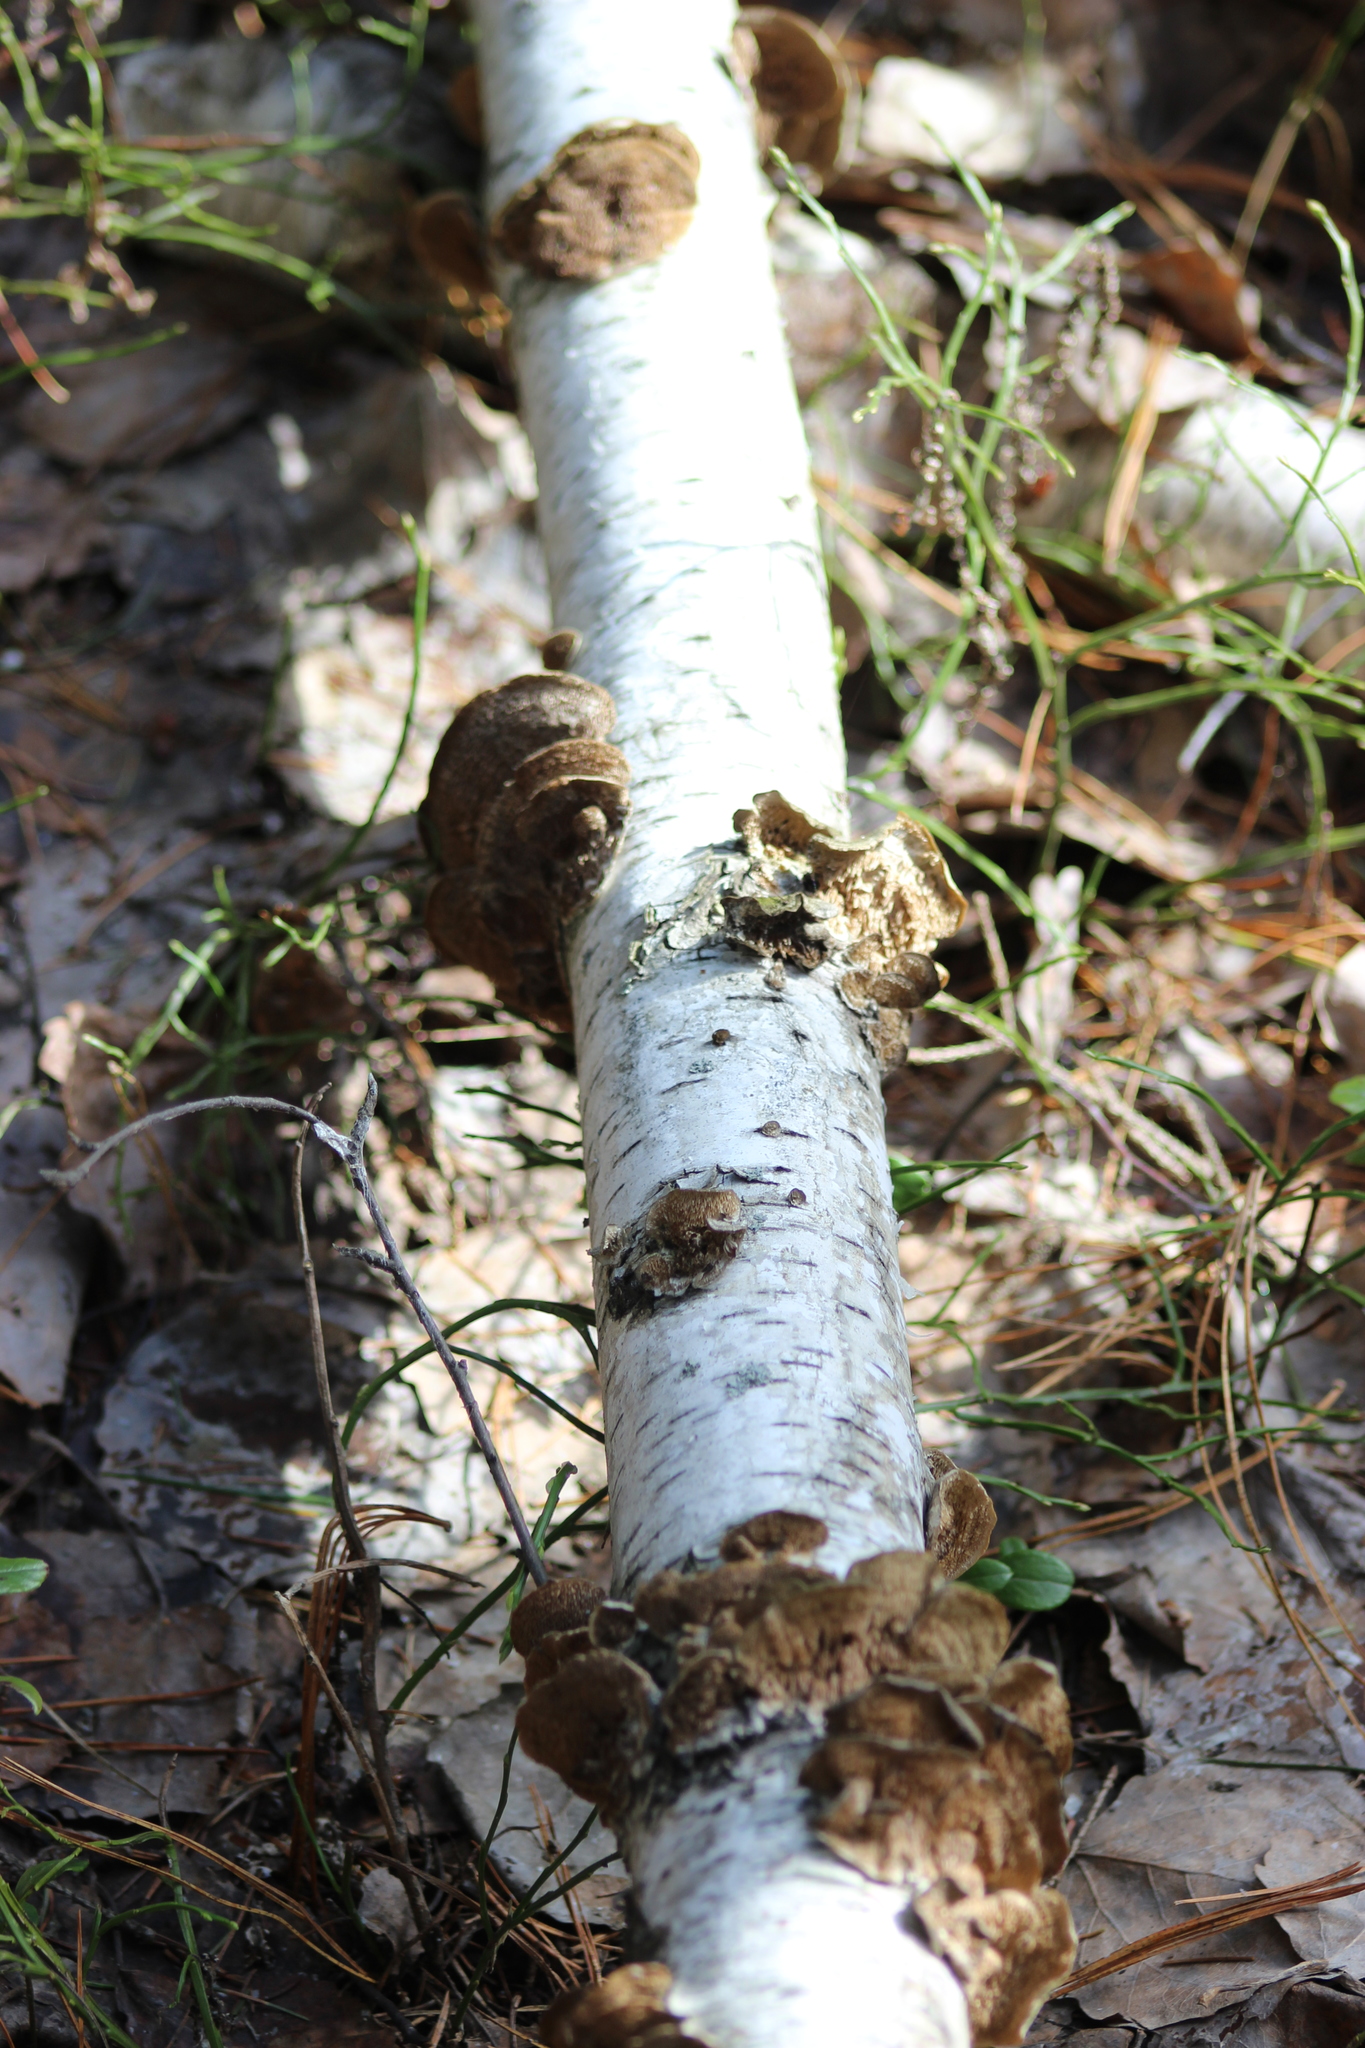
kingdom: Fungi
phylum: Basidiomycota
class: Agaricomycetes
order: Hymenochaetales
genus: Trichaptum
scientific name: Trichaptum biforme
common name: Violet-toothed polypore
